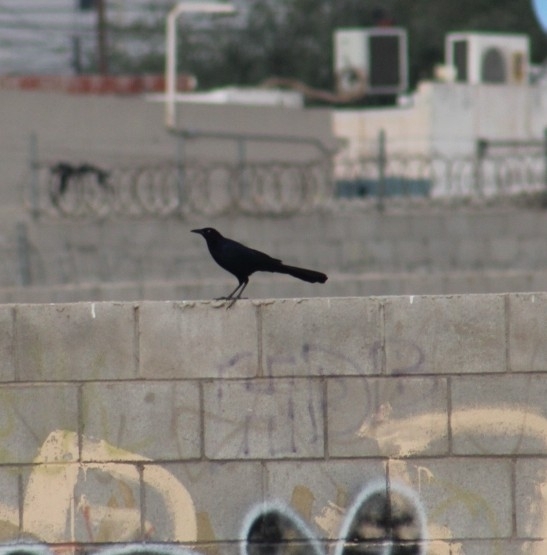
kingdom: Animalia
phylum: Chordata
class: Aves
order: Passeriformes
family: Icteridae
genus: Quiscalus
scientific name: Quiscalus mexicanus
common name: Great-tailed grackle
